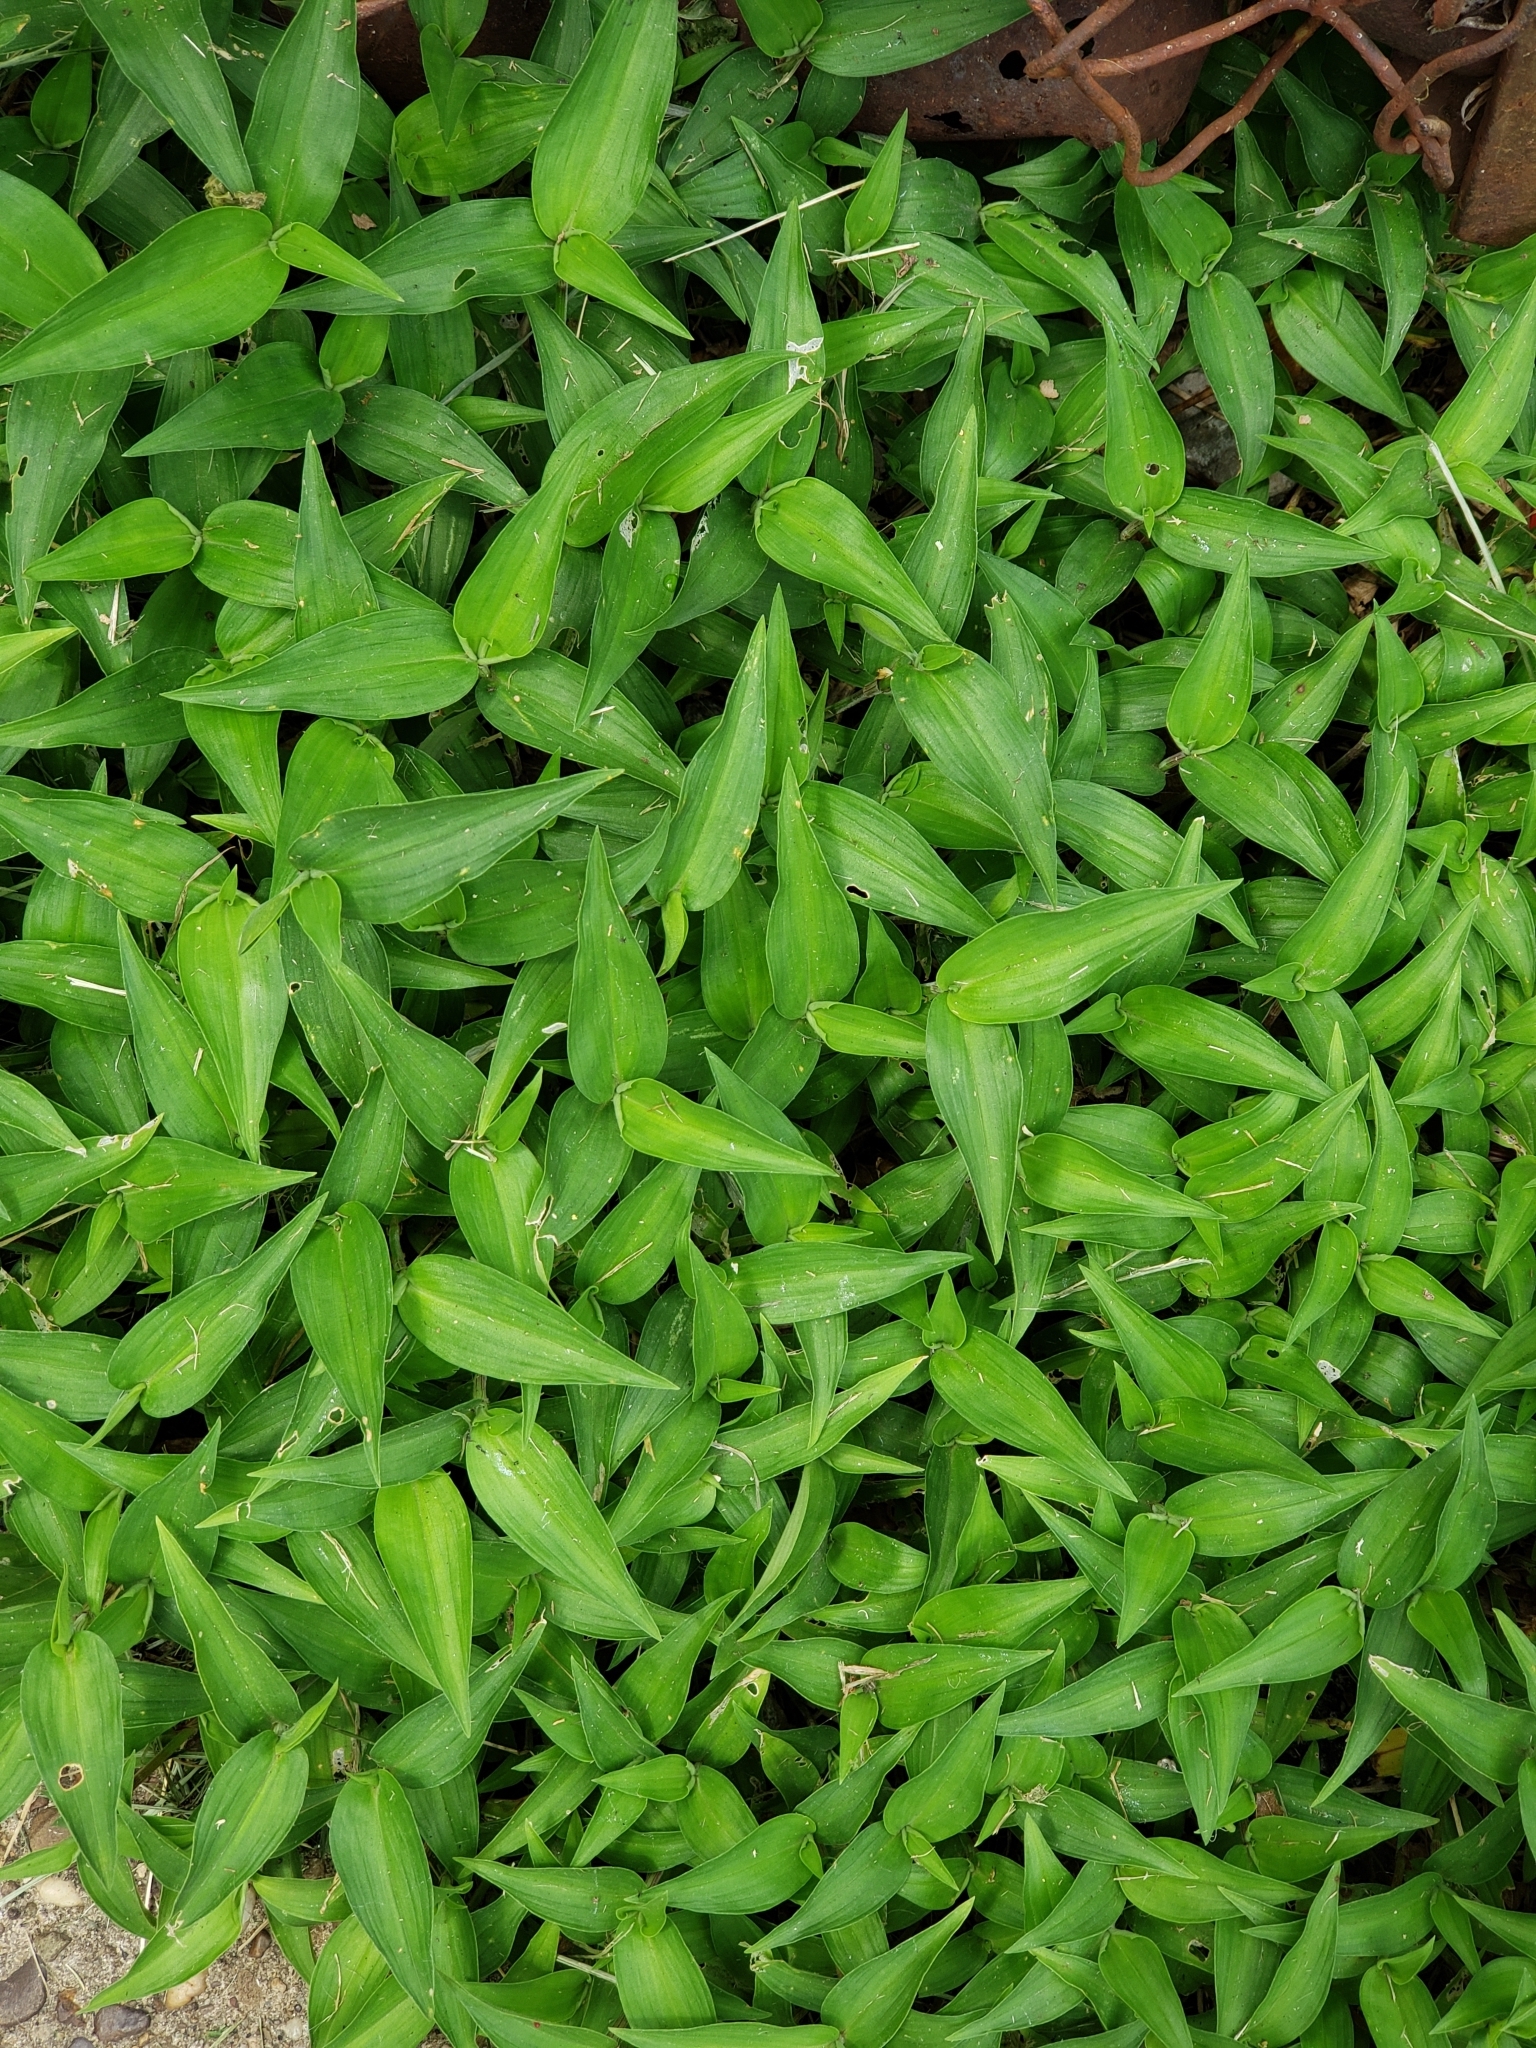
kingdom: Plantae
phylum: Tracheophyta
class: Liliopsida
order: Commelinales
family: Commelinaceae
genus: Commelina
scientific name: Commelina communis
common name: Asiatic dayflower
